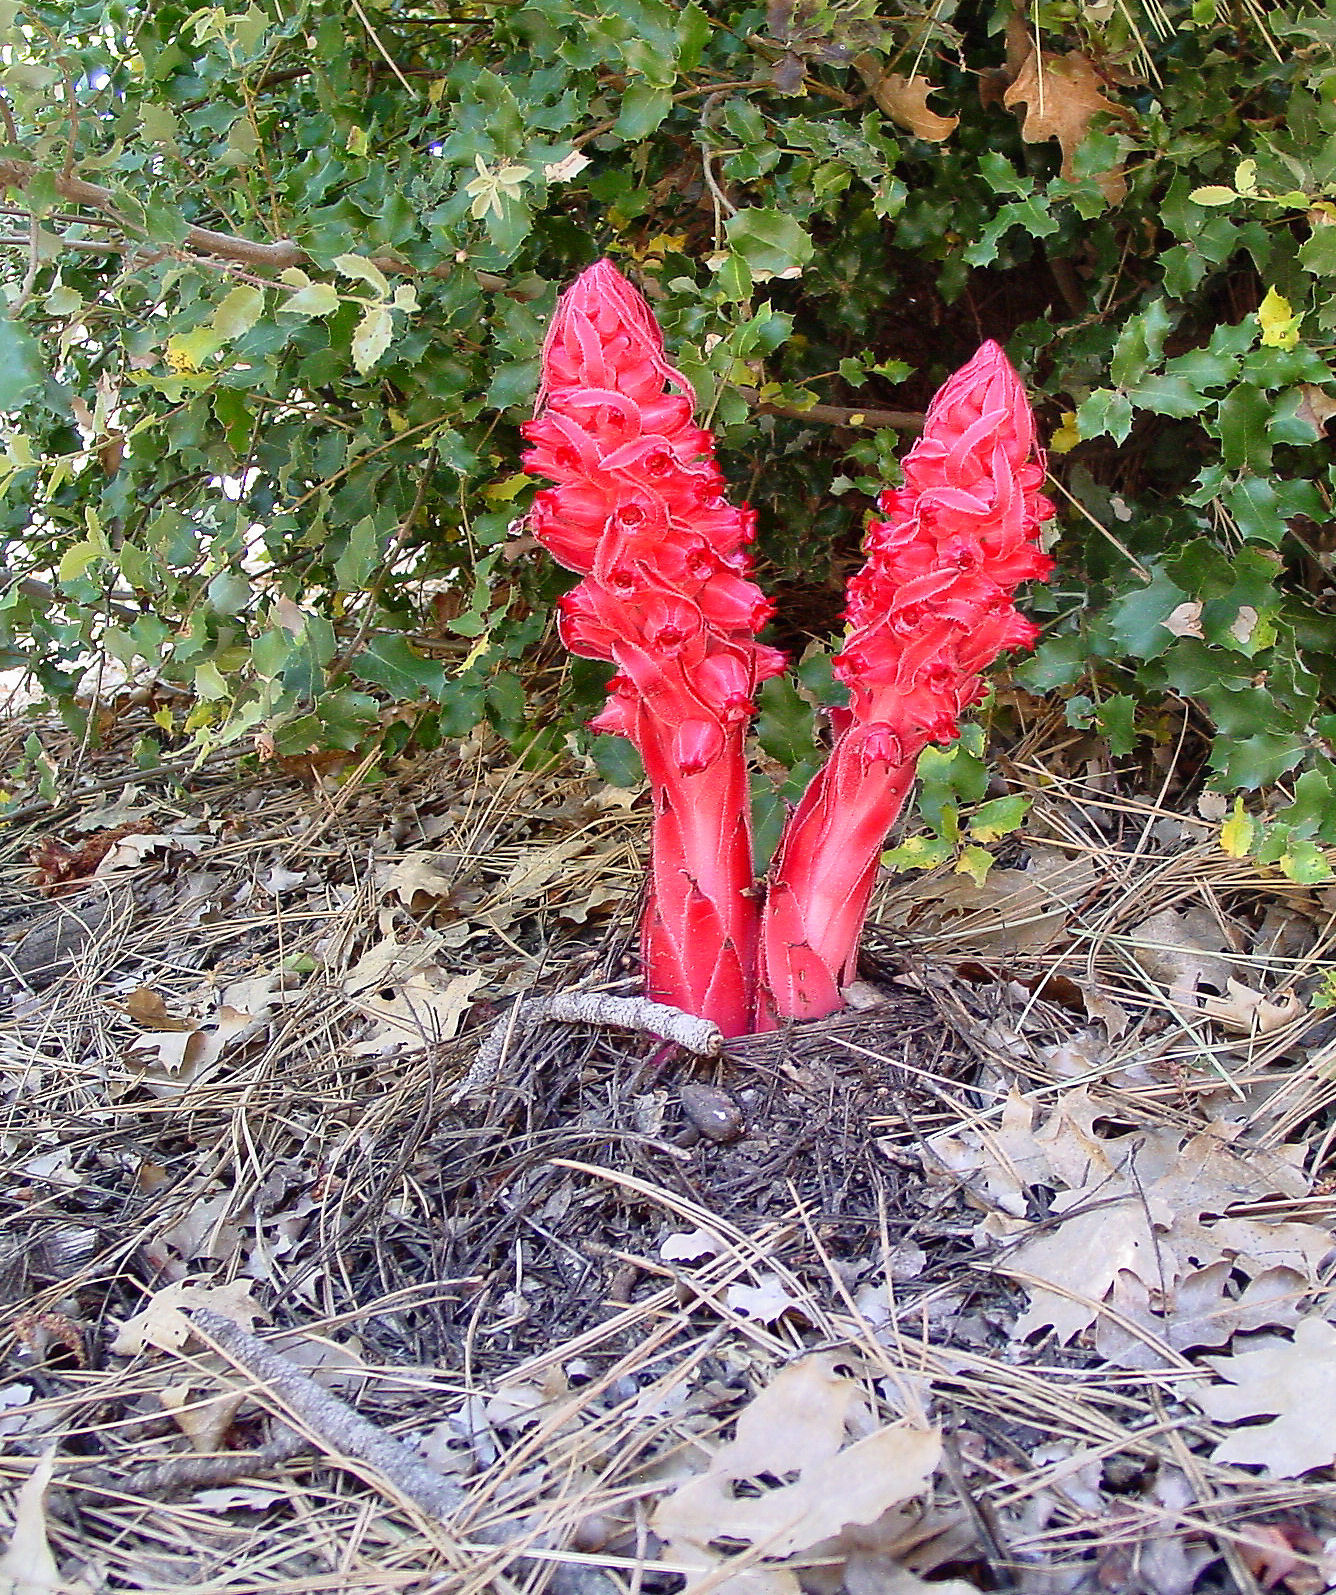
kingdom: Plantae
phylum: Tracheophyta
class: Magnoliopsida
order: Ericales
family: Ericaceae
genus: Sarcodes
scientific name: Sarcodes sanguinea
